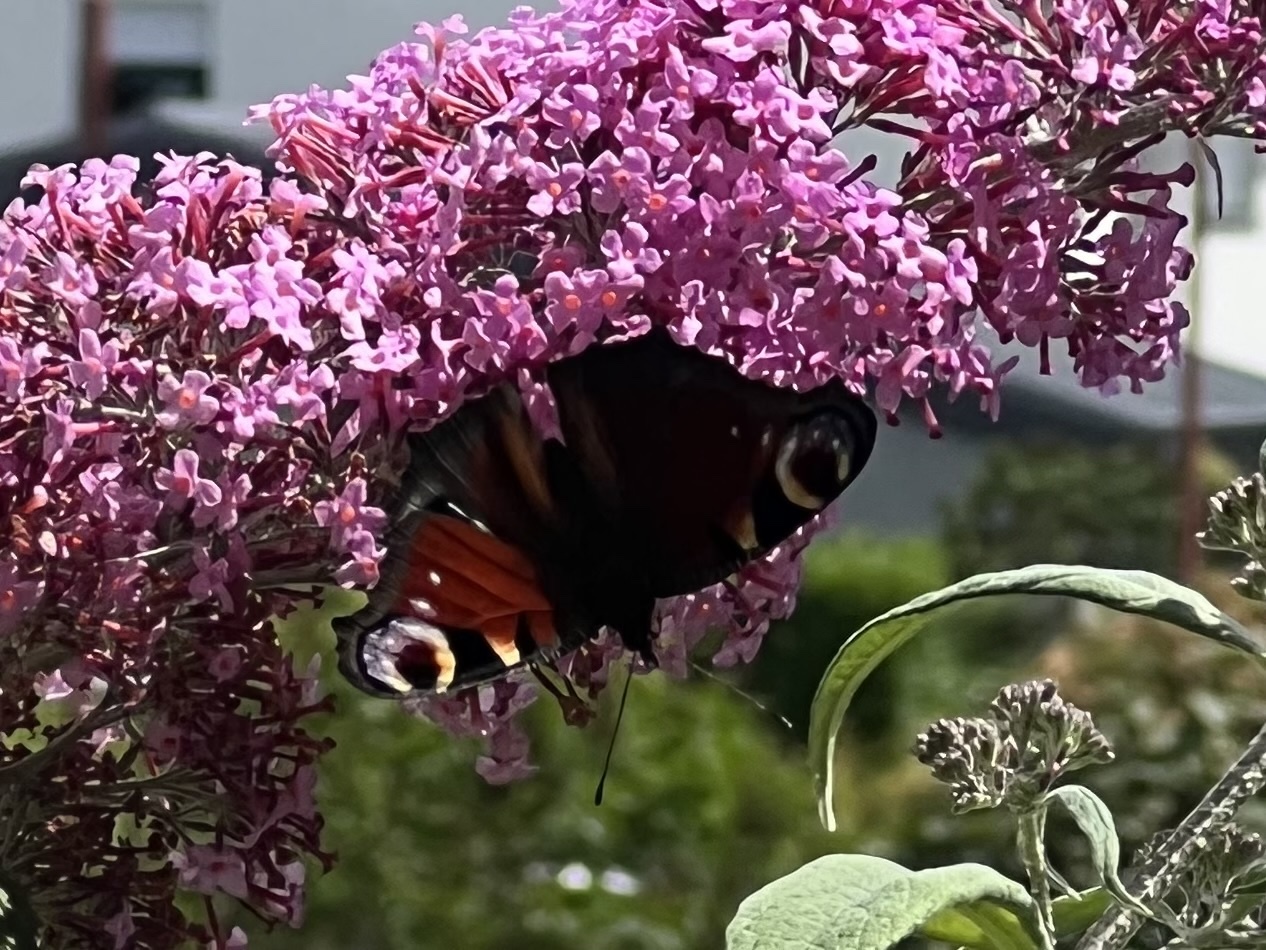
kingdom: Animalia
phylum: Arthropoda
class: Insecta
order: Lepidoptera
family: Nymphalidae
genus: Aglais
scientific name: Aglais io
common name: Peacock
